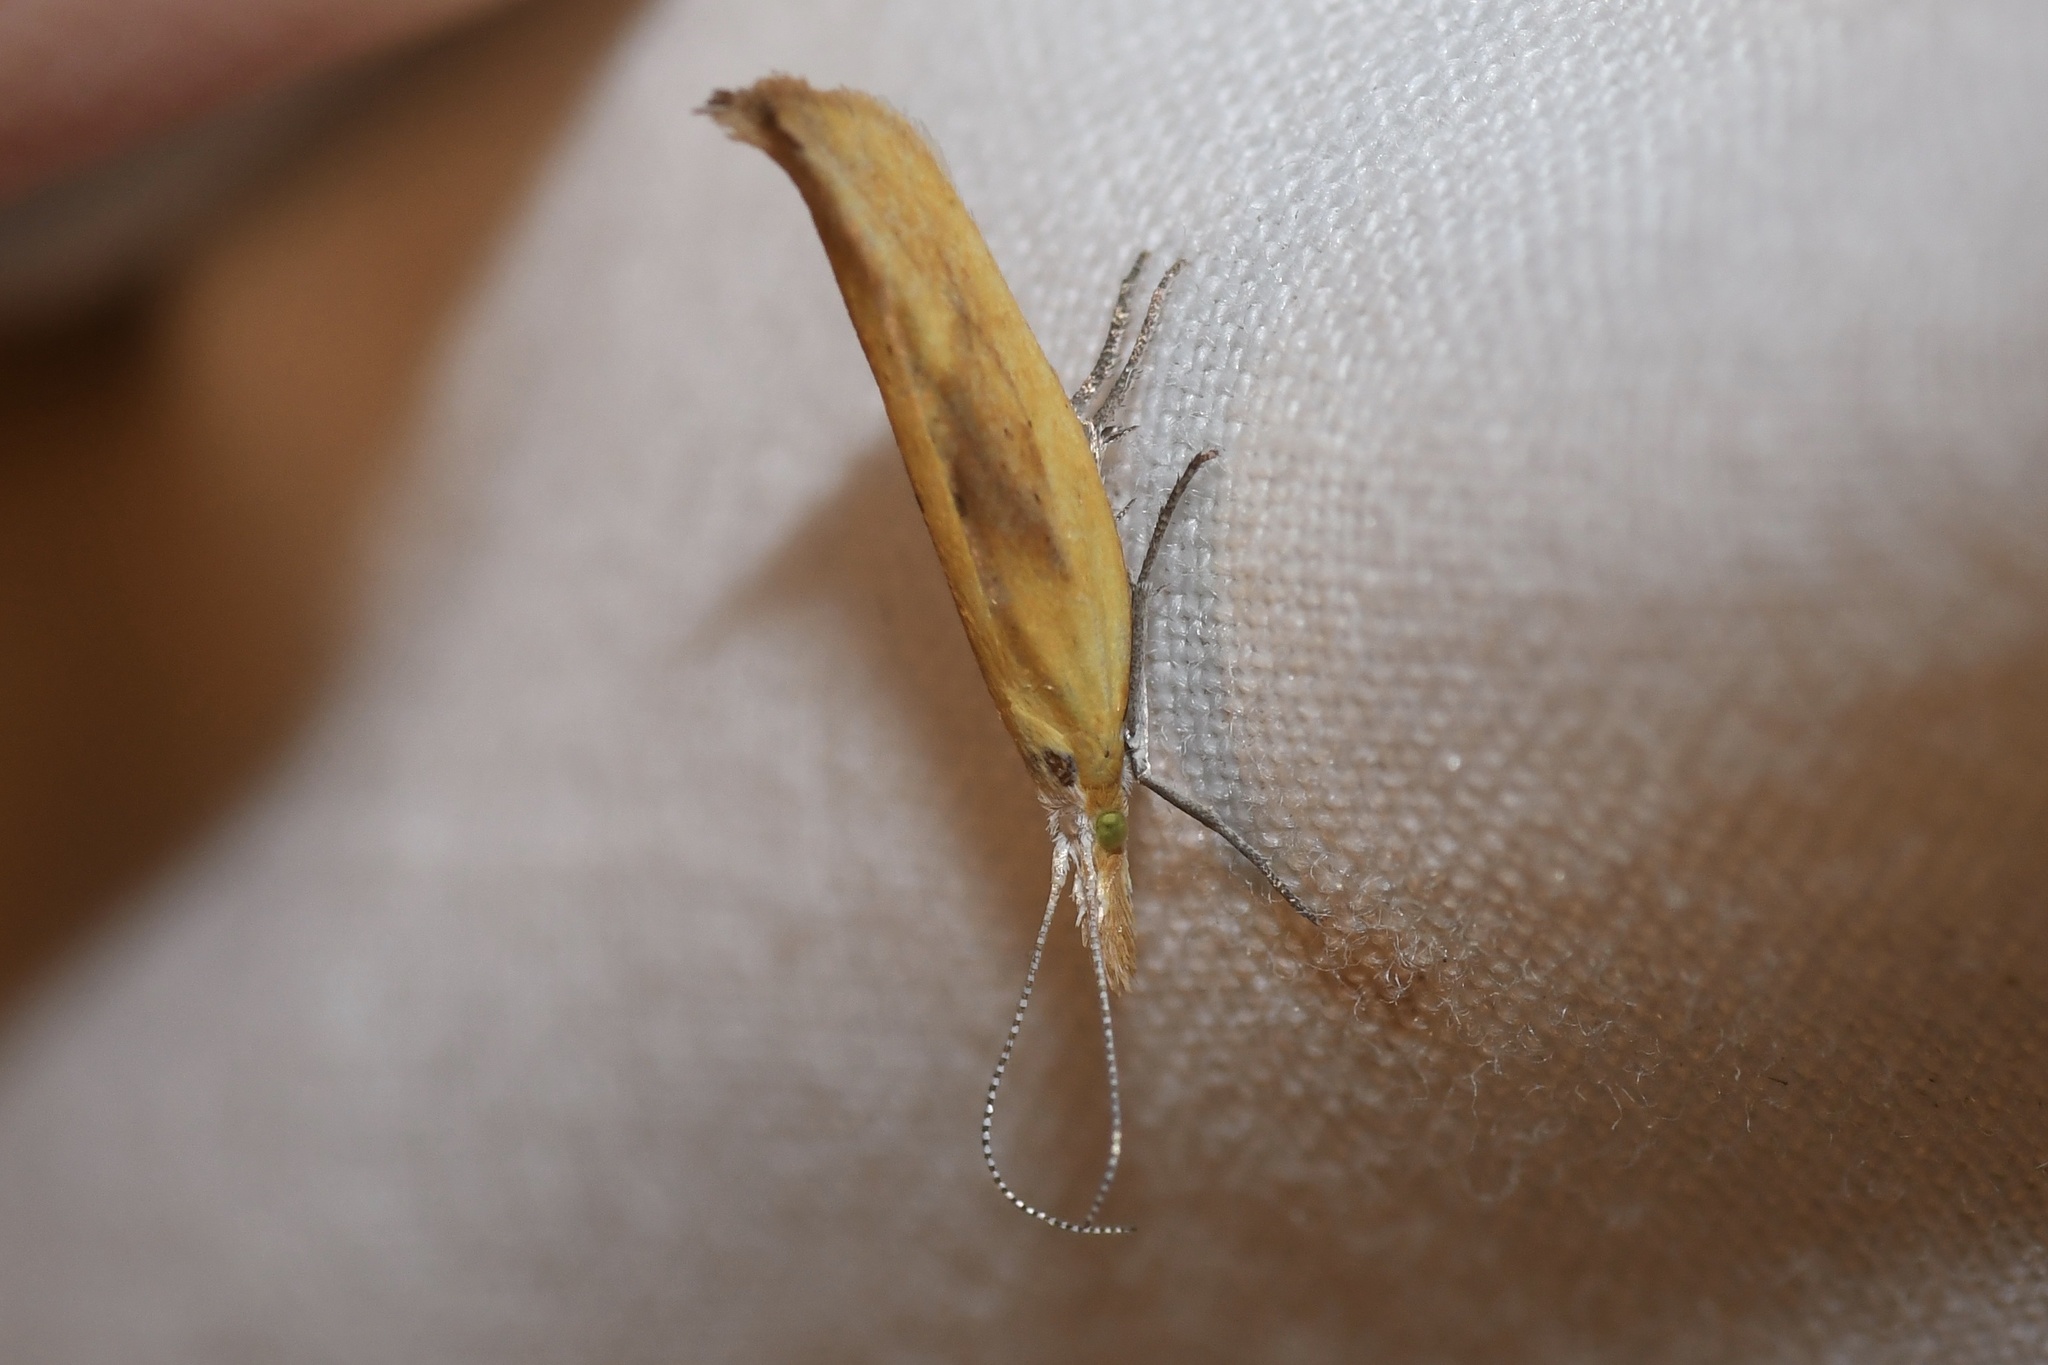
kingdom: Animalia
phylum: Arthropoda
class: Insecta
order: Lepidoptera
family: Ypsolophidae
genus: Ypsolopha
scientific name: Ypsolopha canariella
